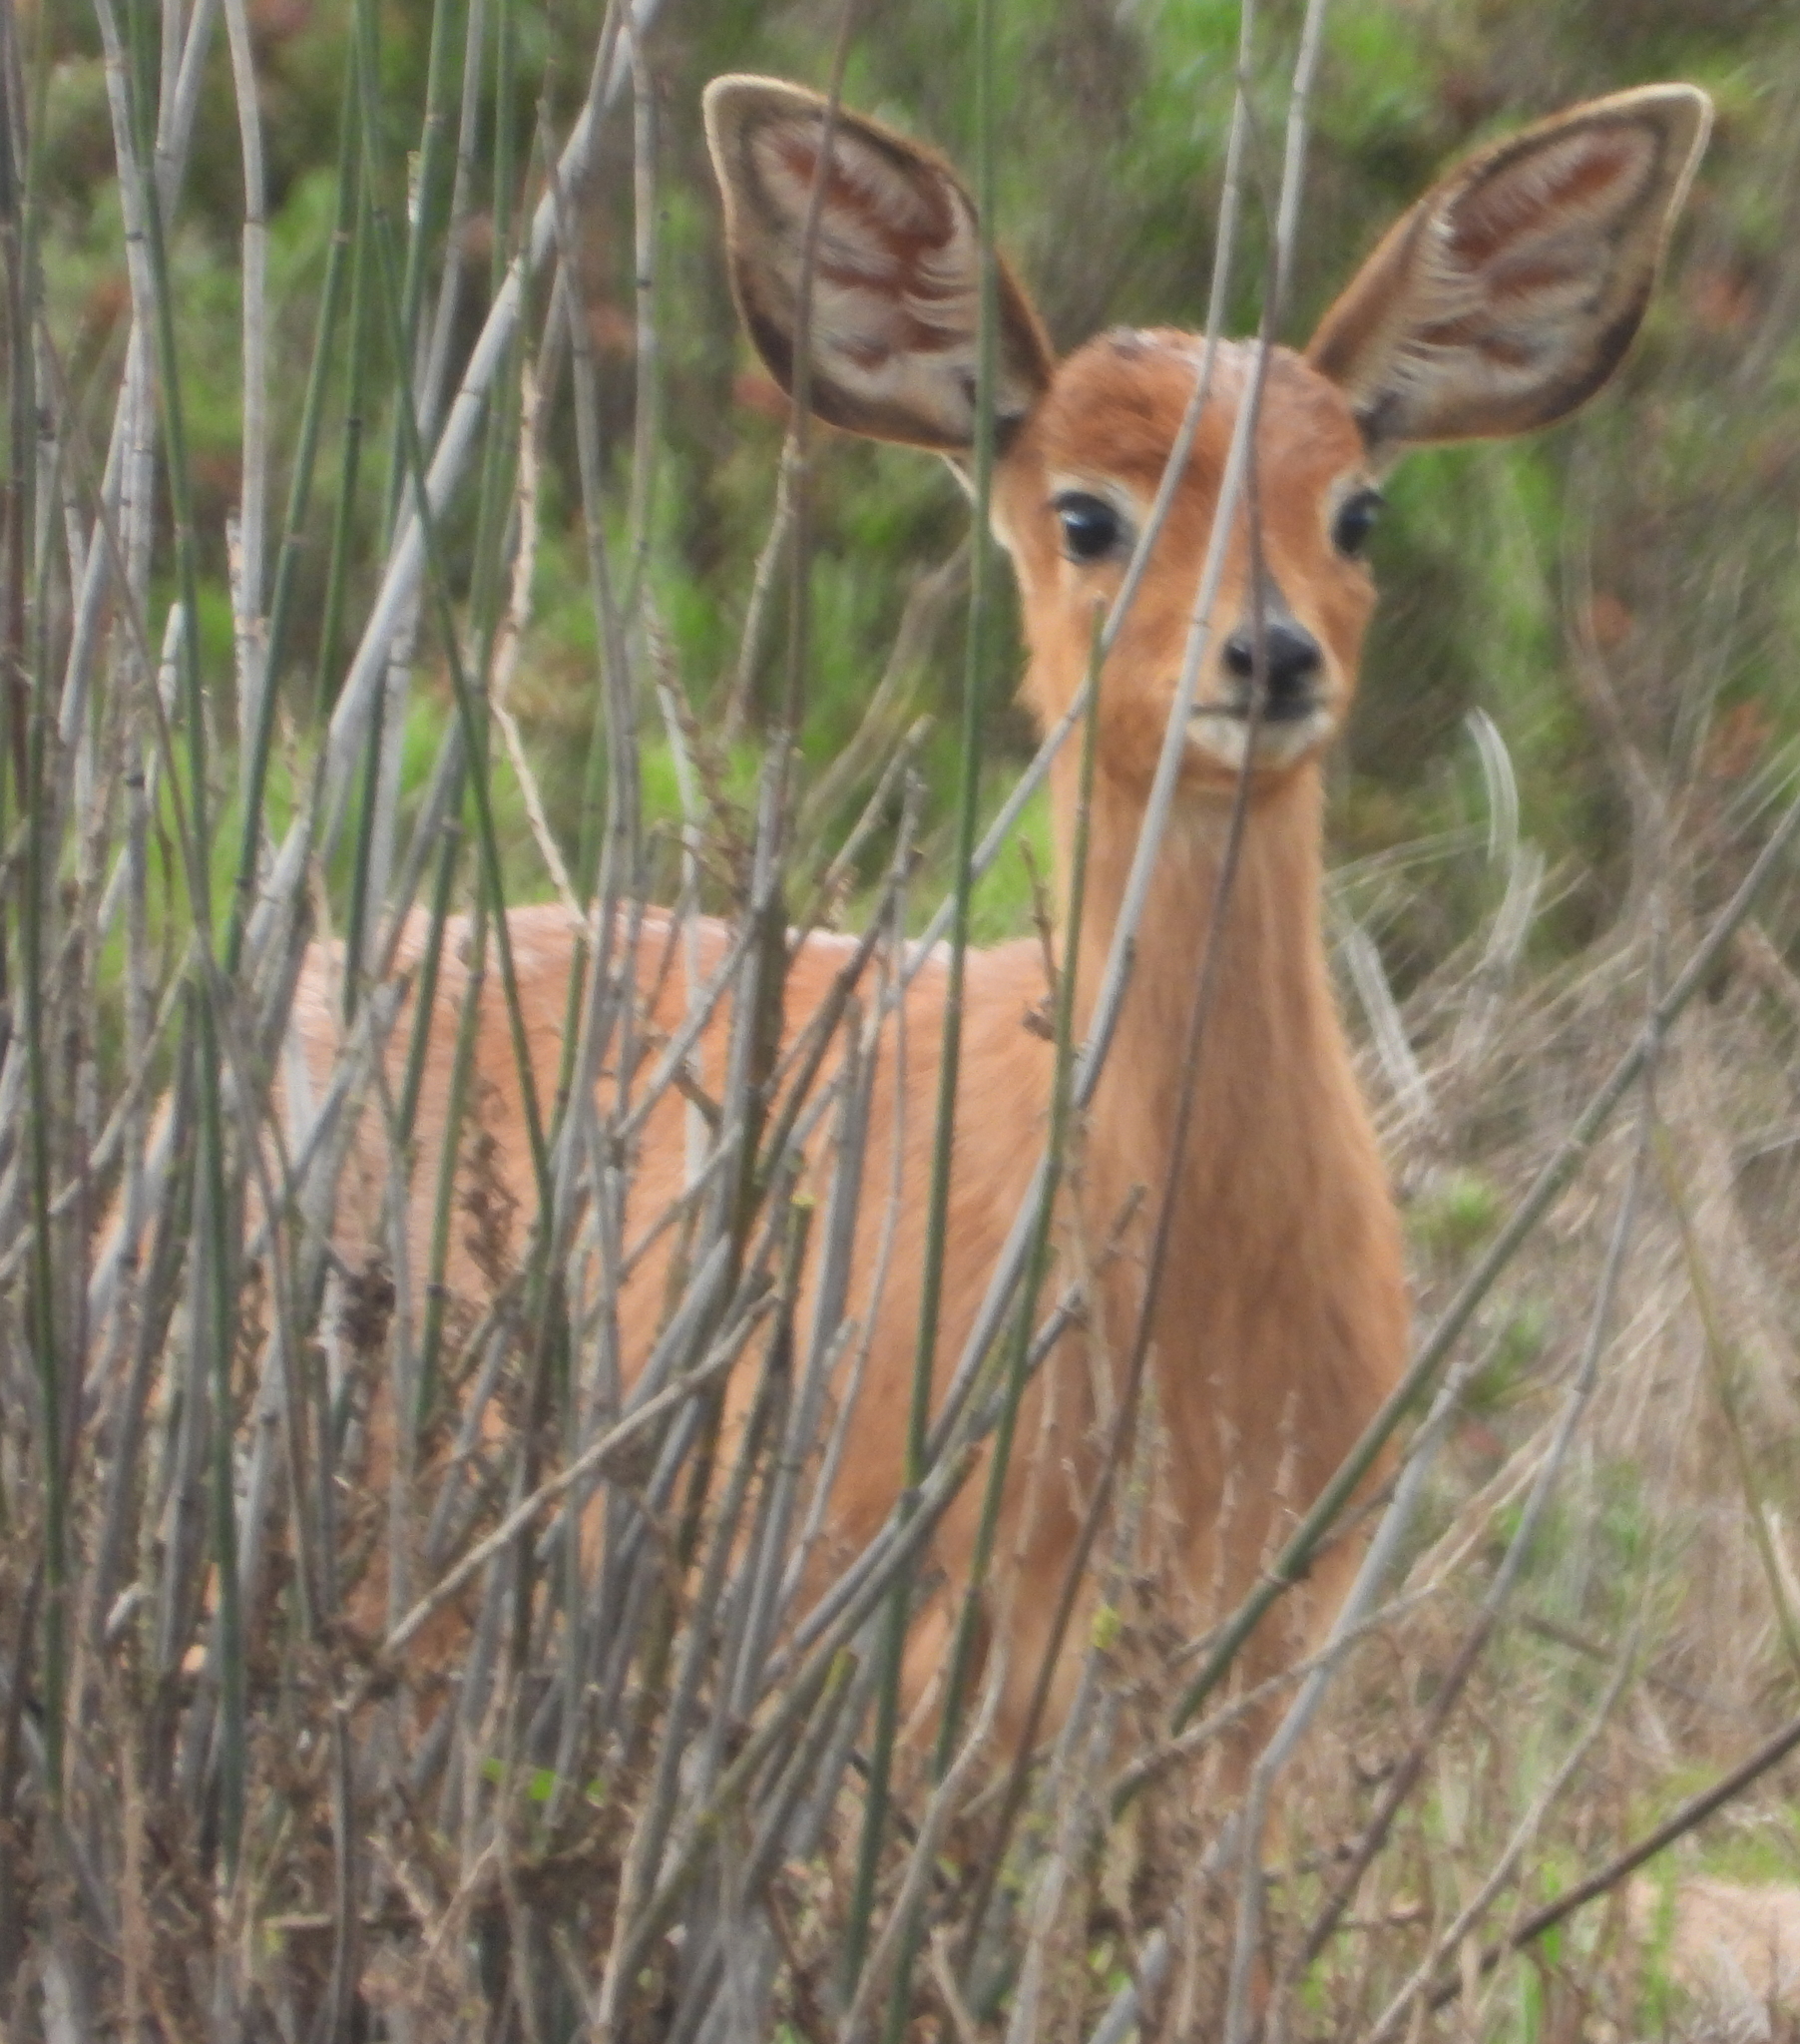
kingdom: Animalia
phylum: Chordata
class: Mammalia
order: Artiodactyla
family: Bovidae
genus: Raphicerus
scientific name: Raphicerus campestris
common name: Steenbok
